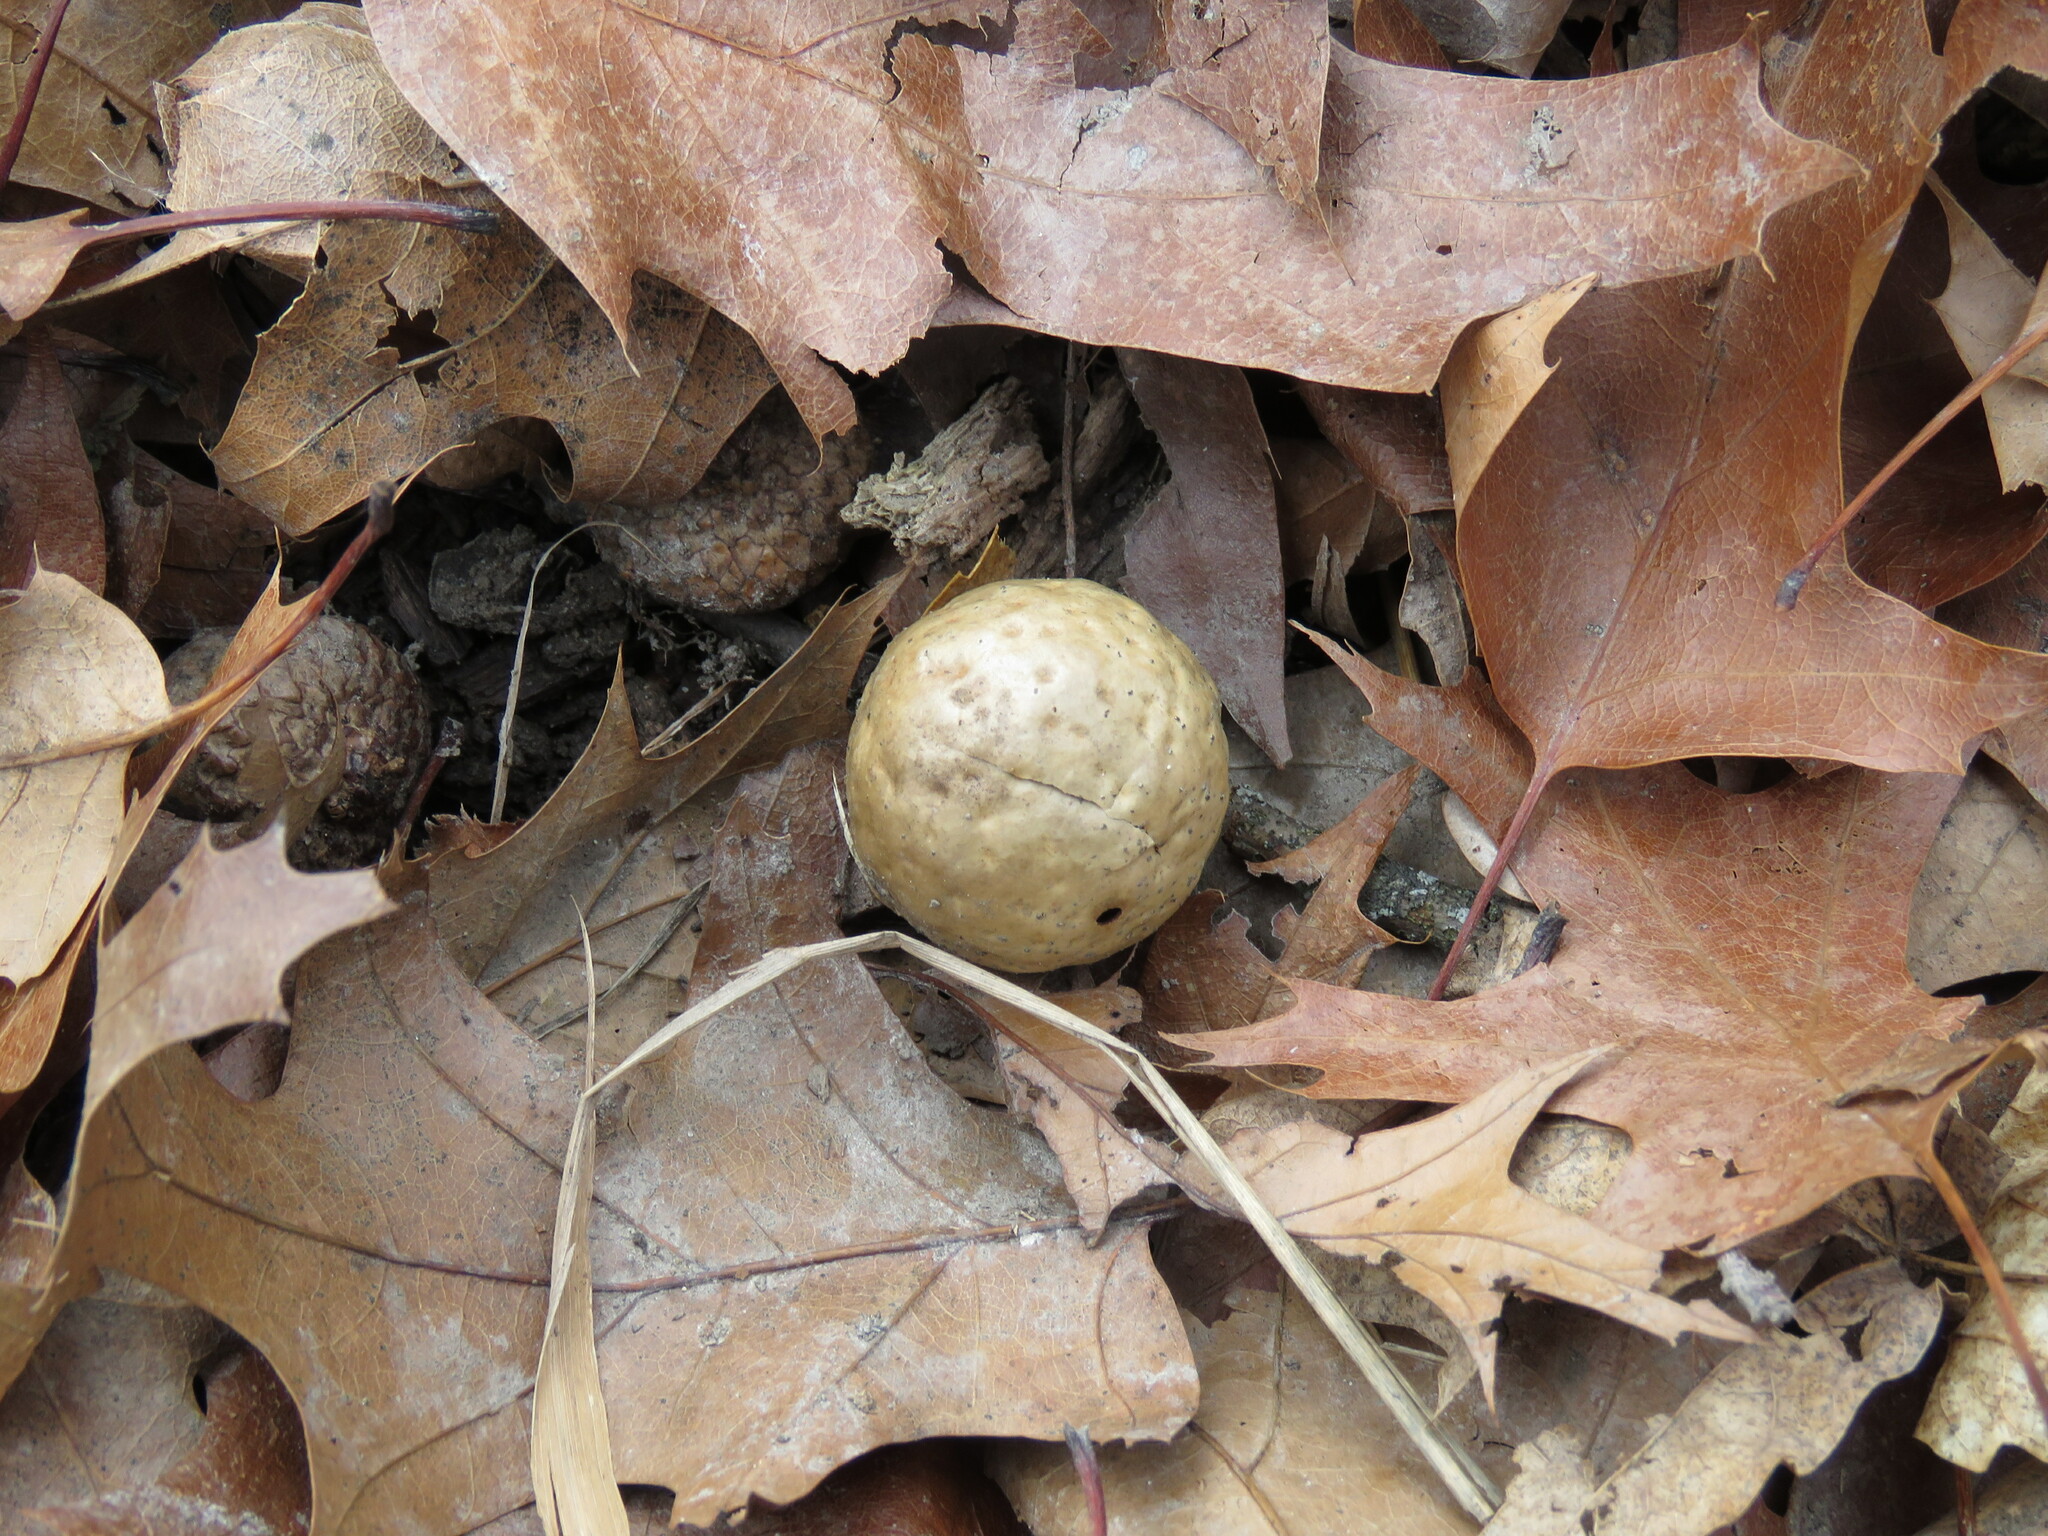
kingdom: Animalia
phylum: Arthropoda
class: Insecta
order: Hymenoptera
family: Cynipidae
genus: Amphibolips
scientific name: Amphibolips
